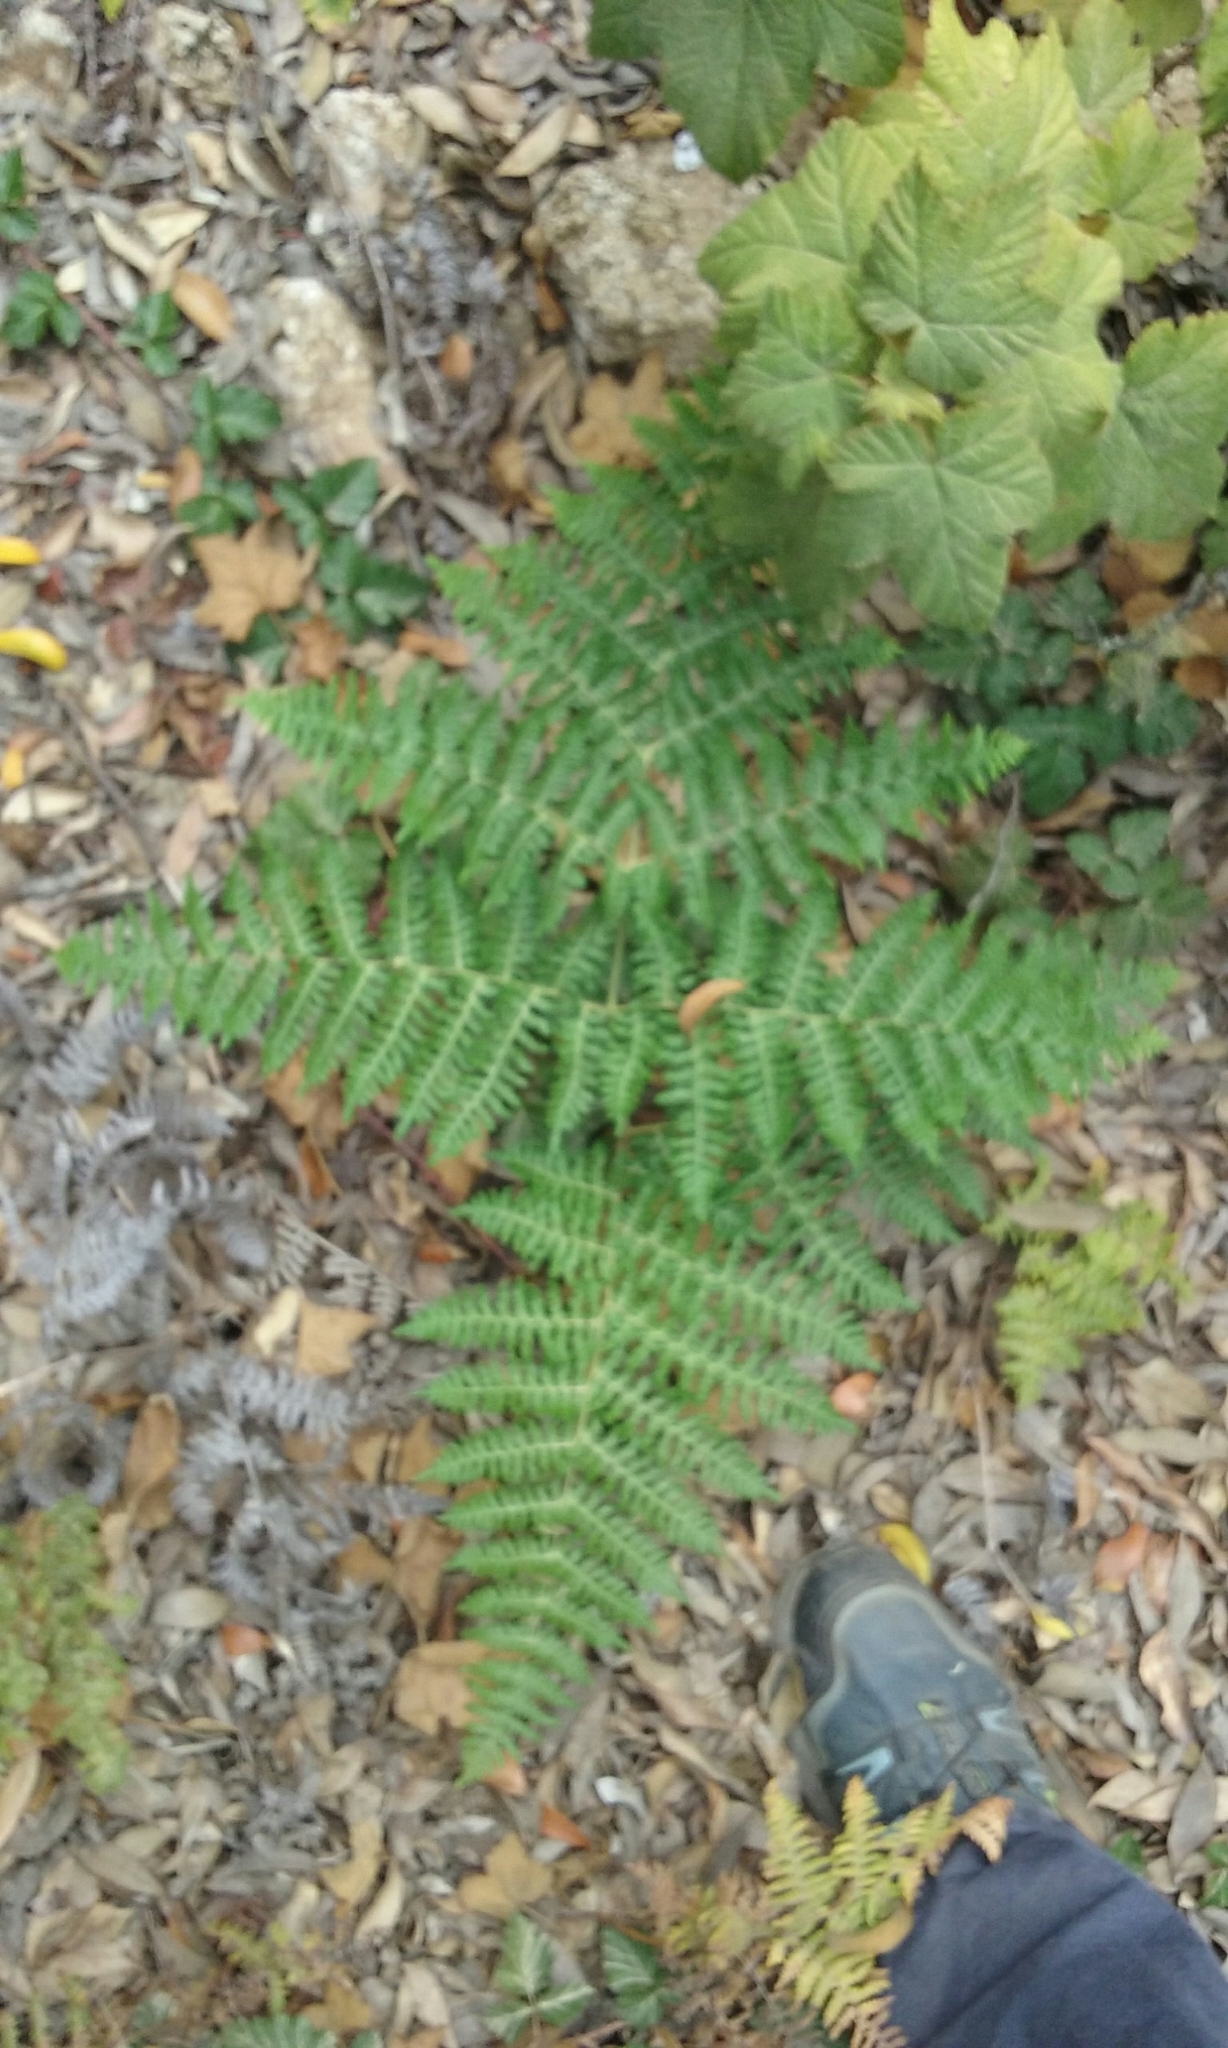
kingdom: Plantae
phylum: Tracheophyta
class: Polypodiopsida
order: Polypodiales
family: Dennstaedtiaceae
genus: Pteridium
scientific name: Pteridium aquilinum
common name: Bracken
